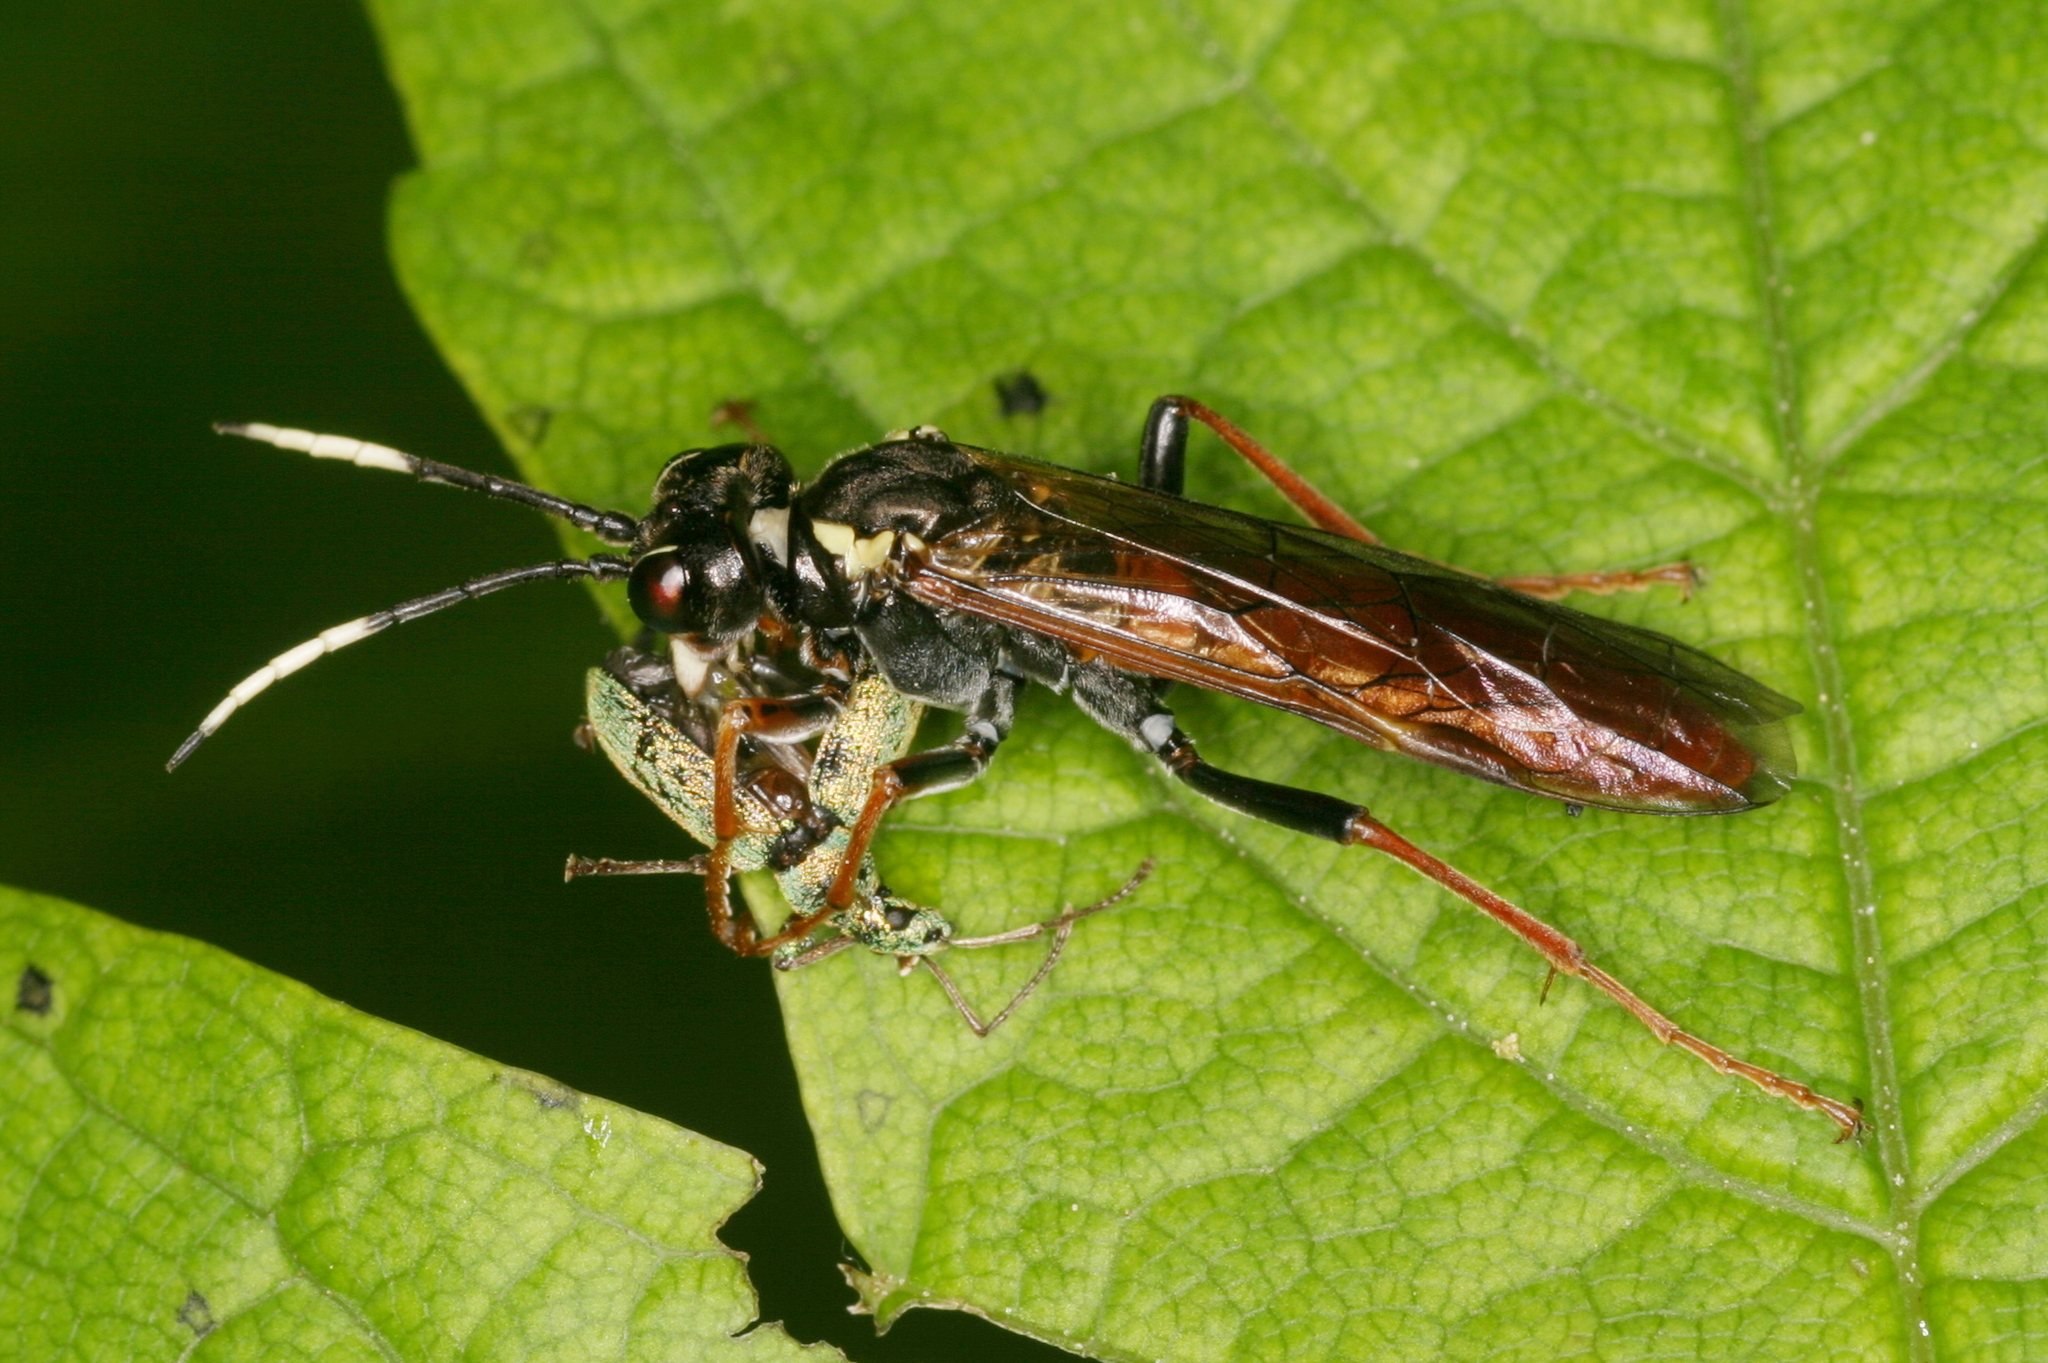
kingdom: Animalia
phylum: Arthropoda
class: Insecta
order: Hymenoptera
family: Tenthredinidae
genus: Tenthredo
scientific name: Tenthredo ferruginea
